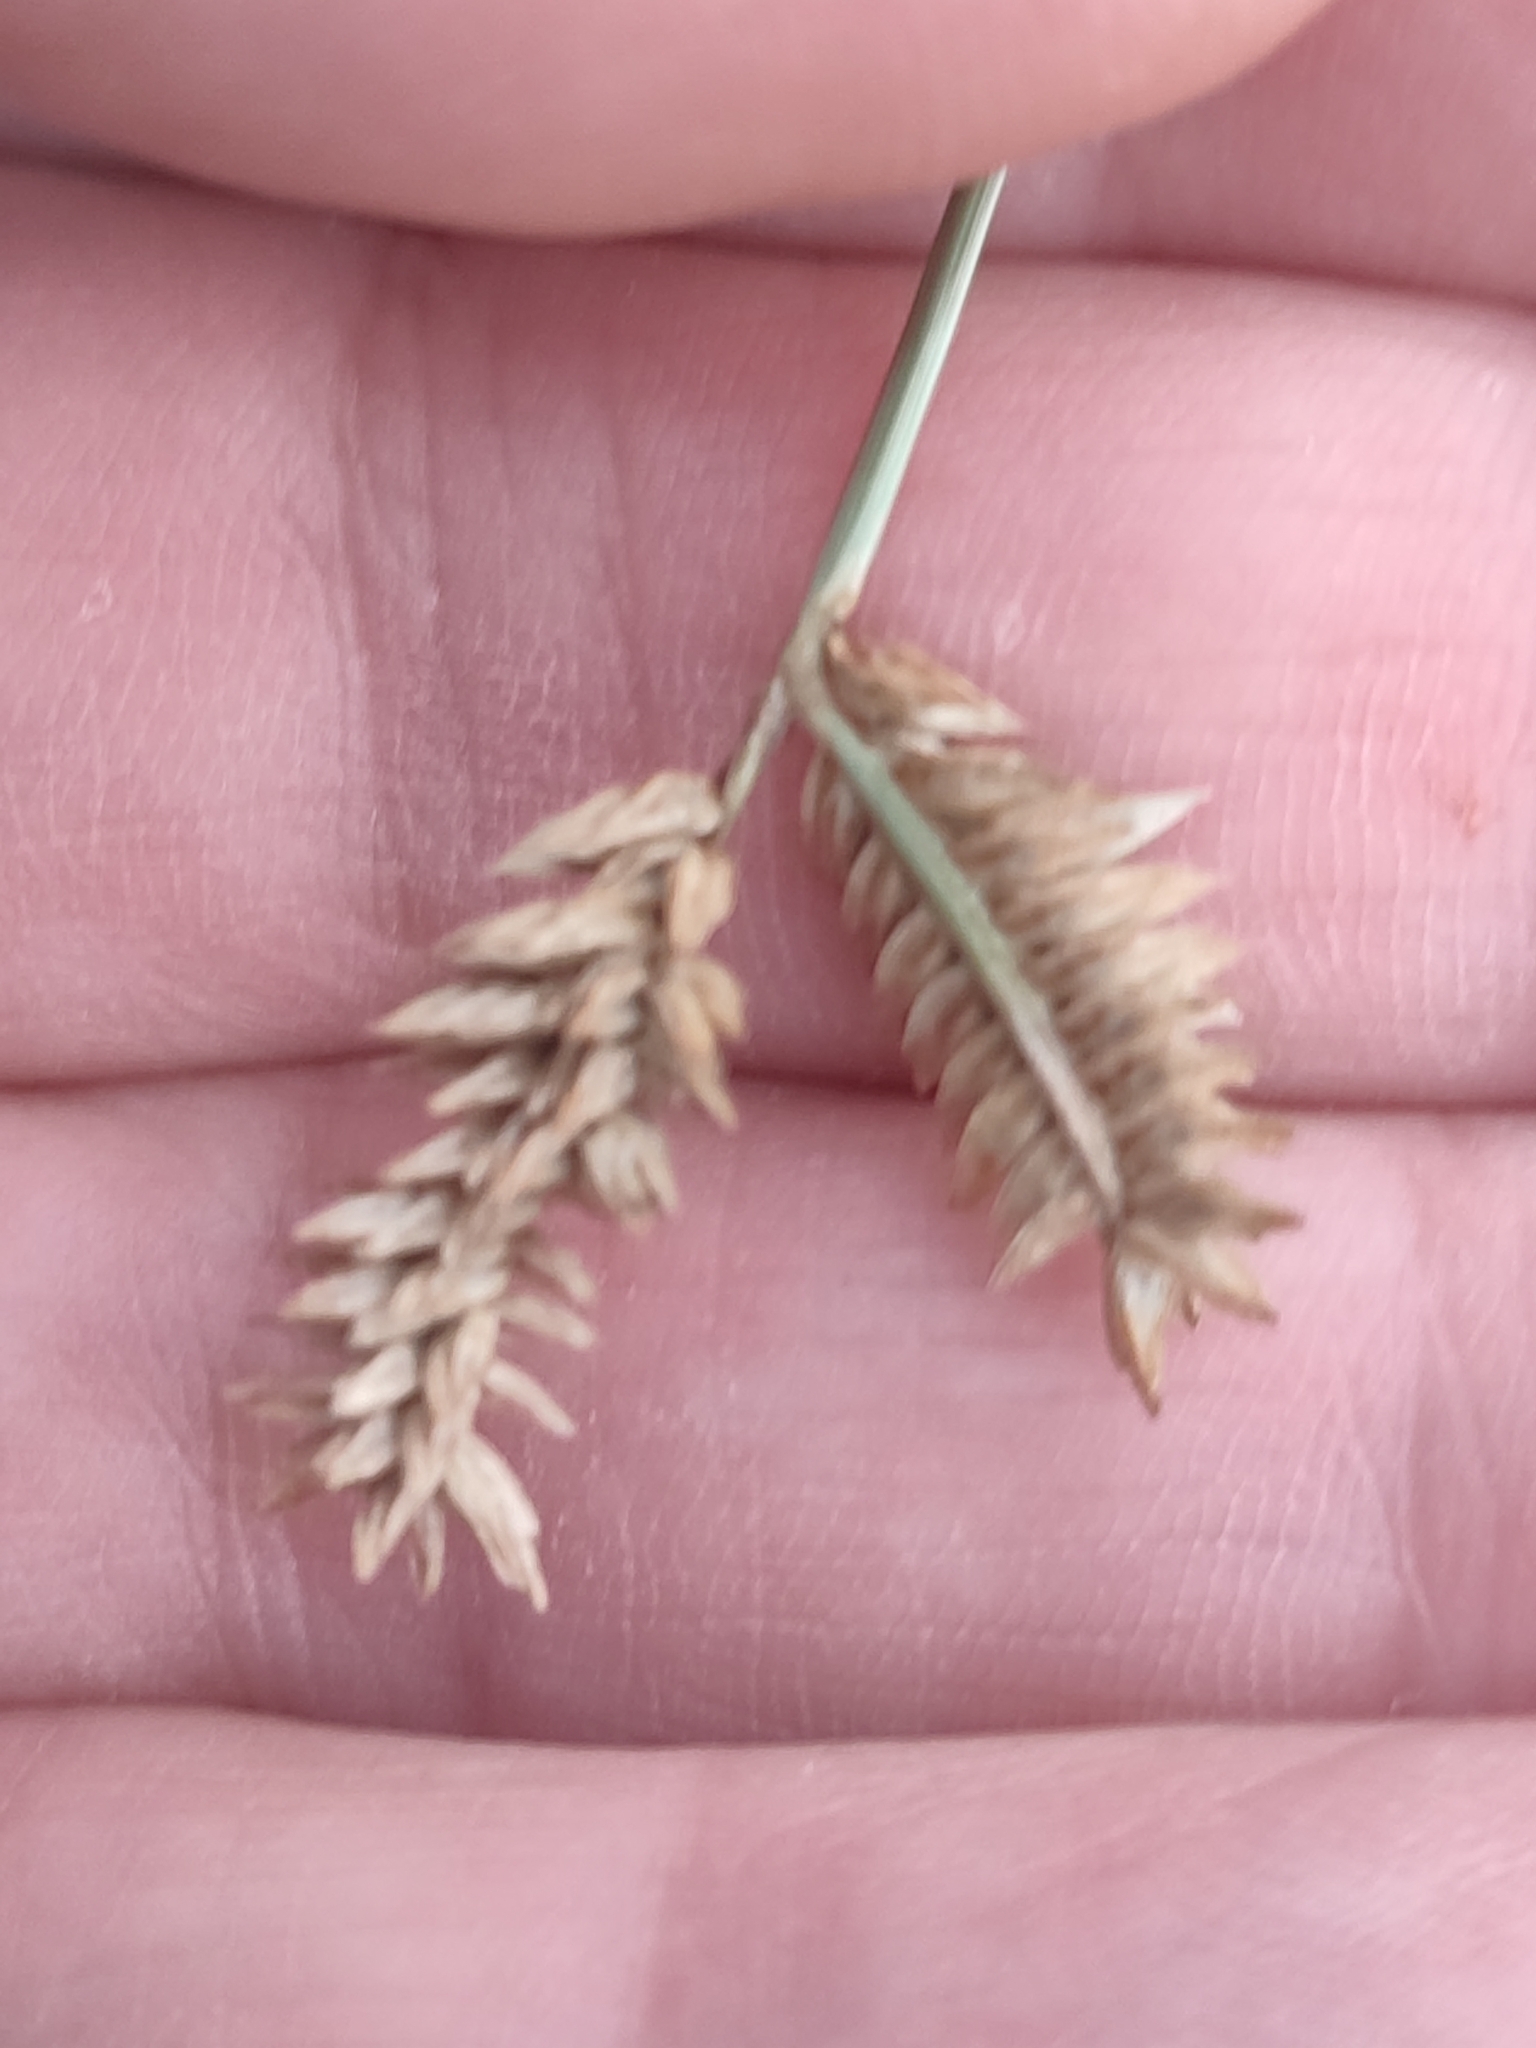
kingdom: Plantae
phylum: Tracheophyta
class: Liliopsida
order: Poales
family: Poaceae
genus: Eleusine
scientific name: Eleusine tristachya
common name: American yard-grass
